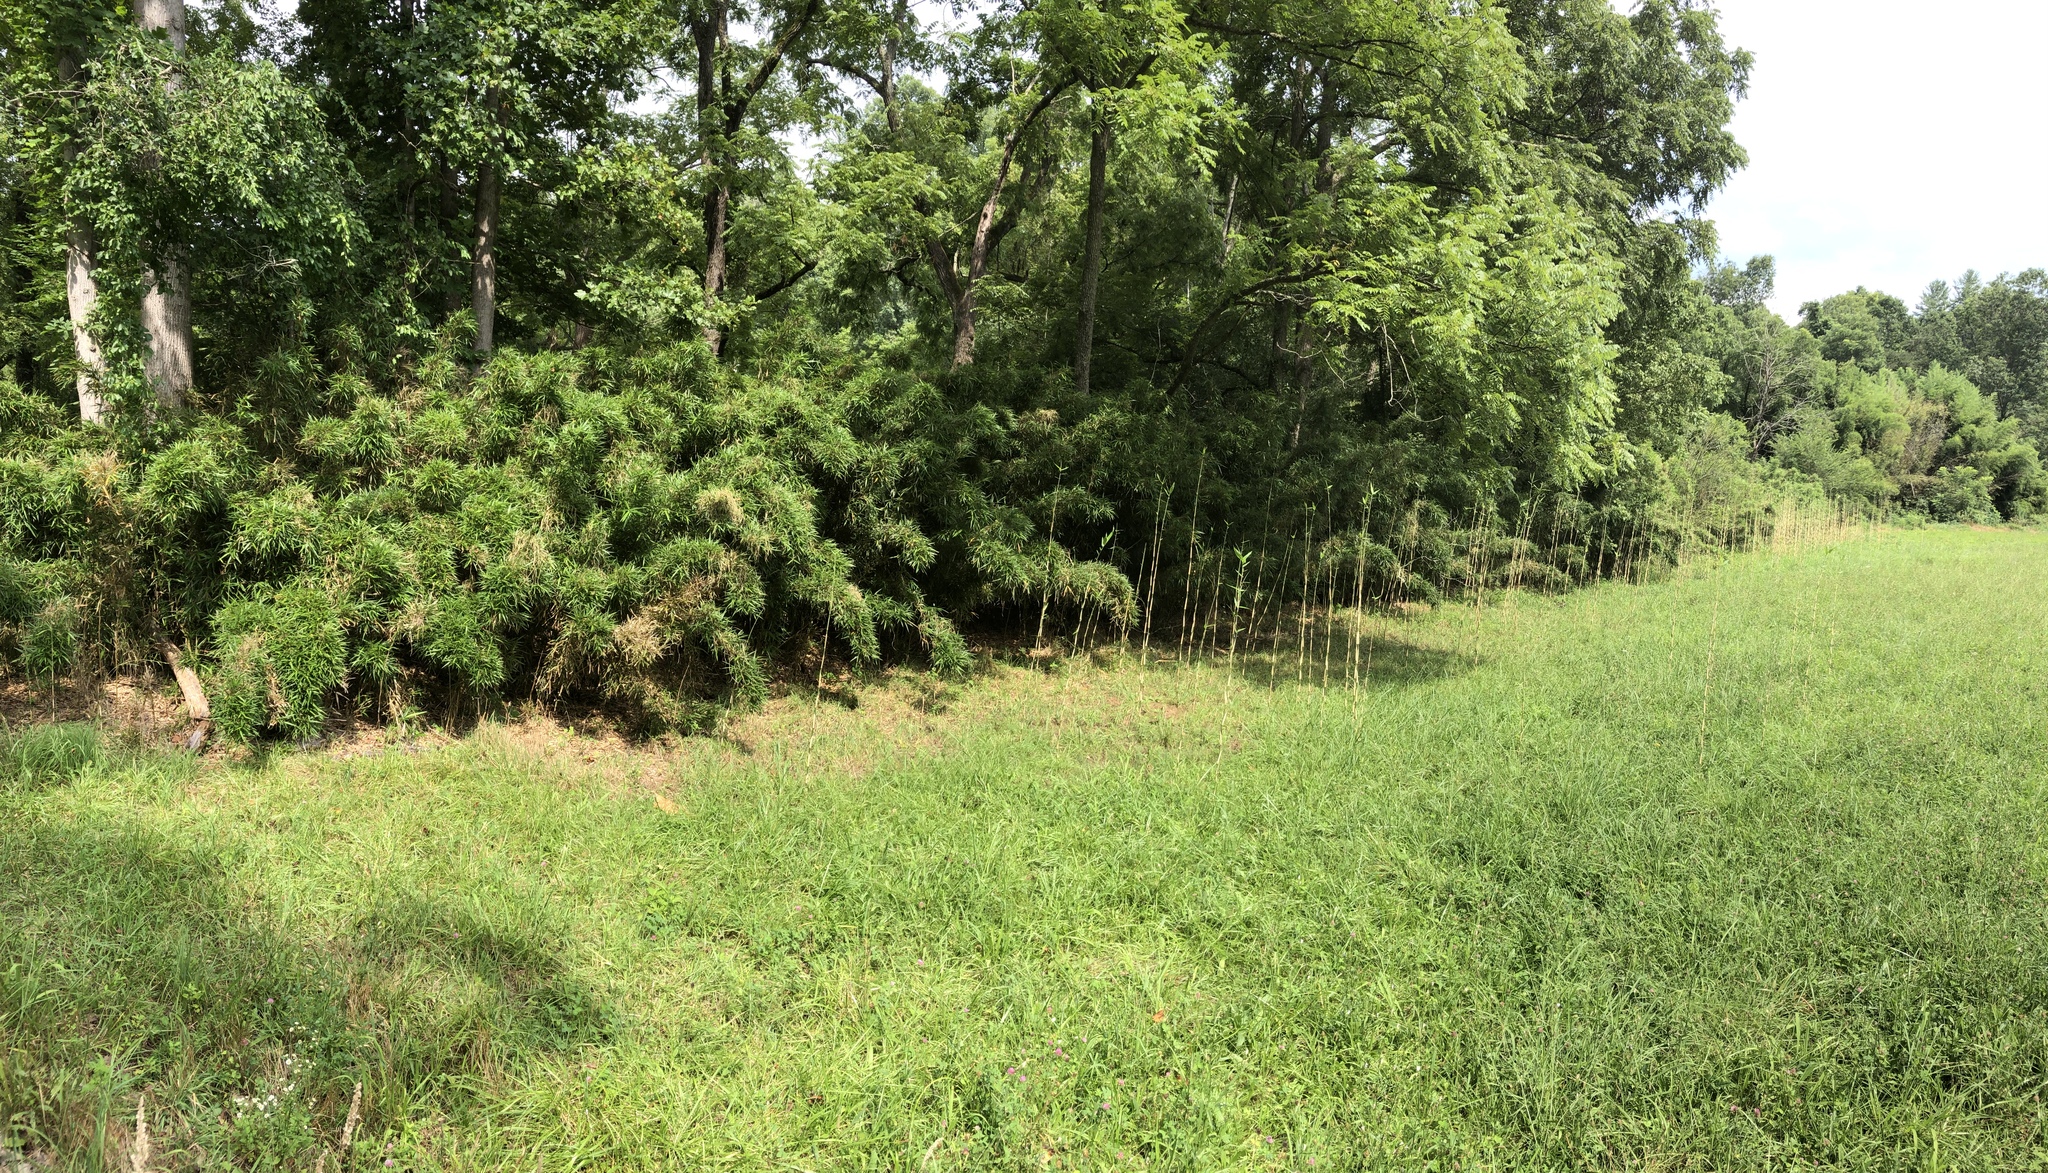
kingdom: Plantae
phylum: Tracheophyta
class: Liliopsida
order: Poales
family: Poaceae
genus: Arundinaria
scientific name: Arundinaria gigantea
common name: Giant cane
